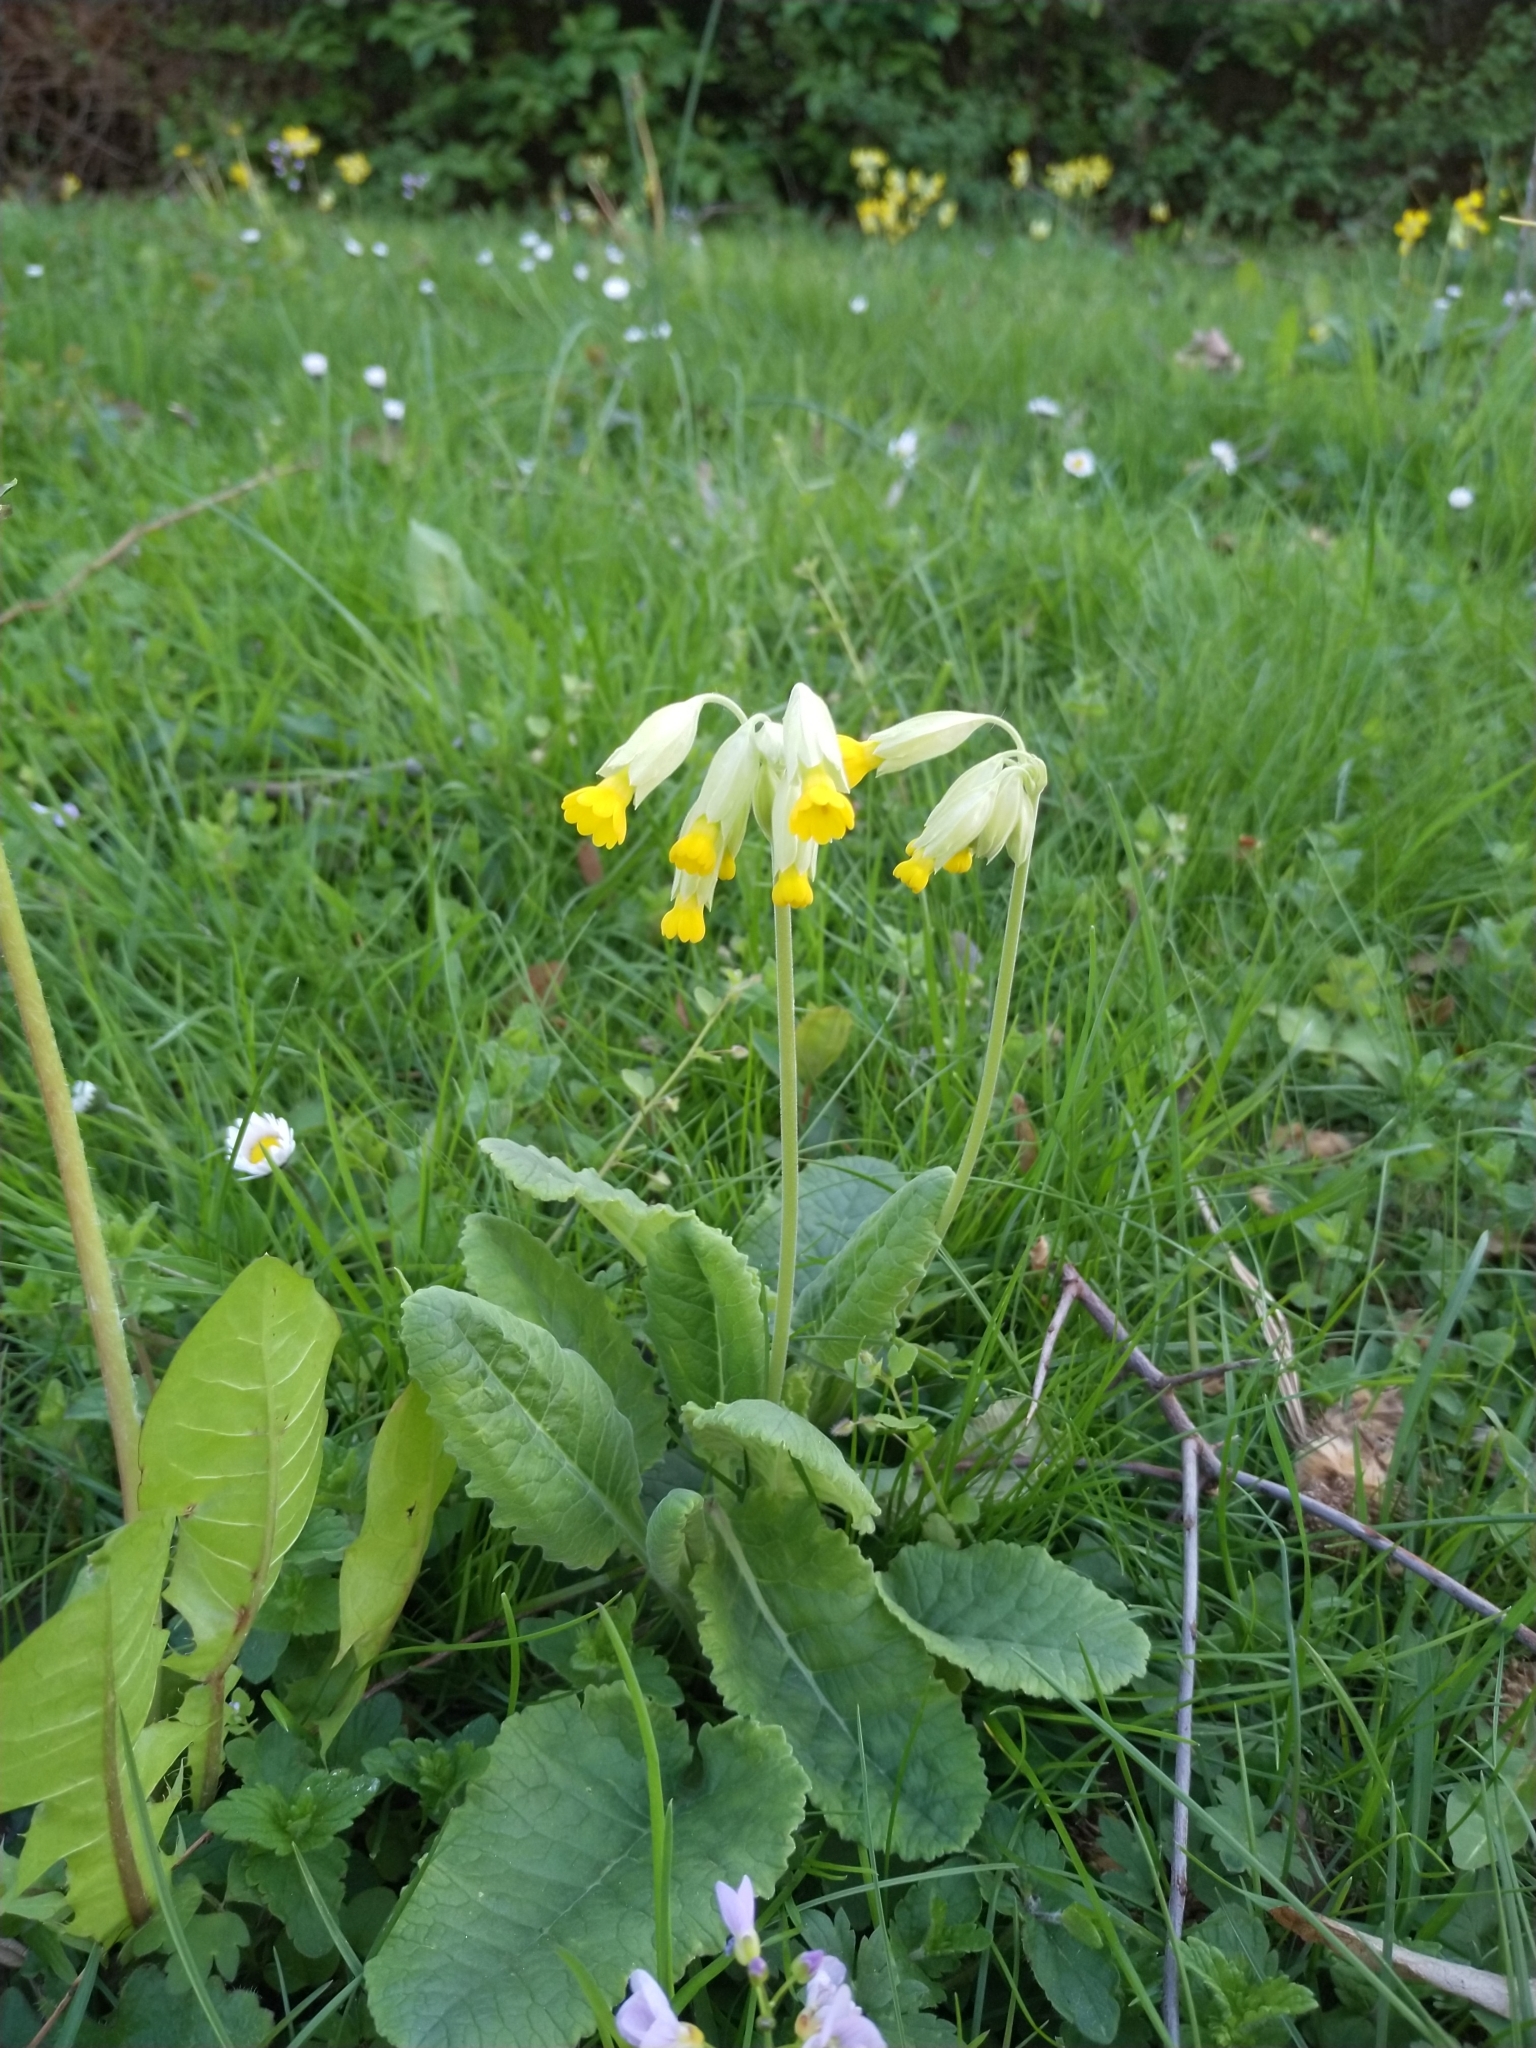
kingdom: Plantae
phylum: Tracheophyta
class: Magnoliopsida
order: Ericales
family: Primulaceae
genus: Primula
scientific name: Primula veris
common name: Cowslip
